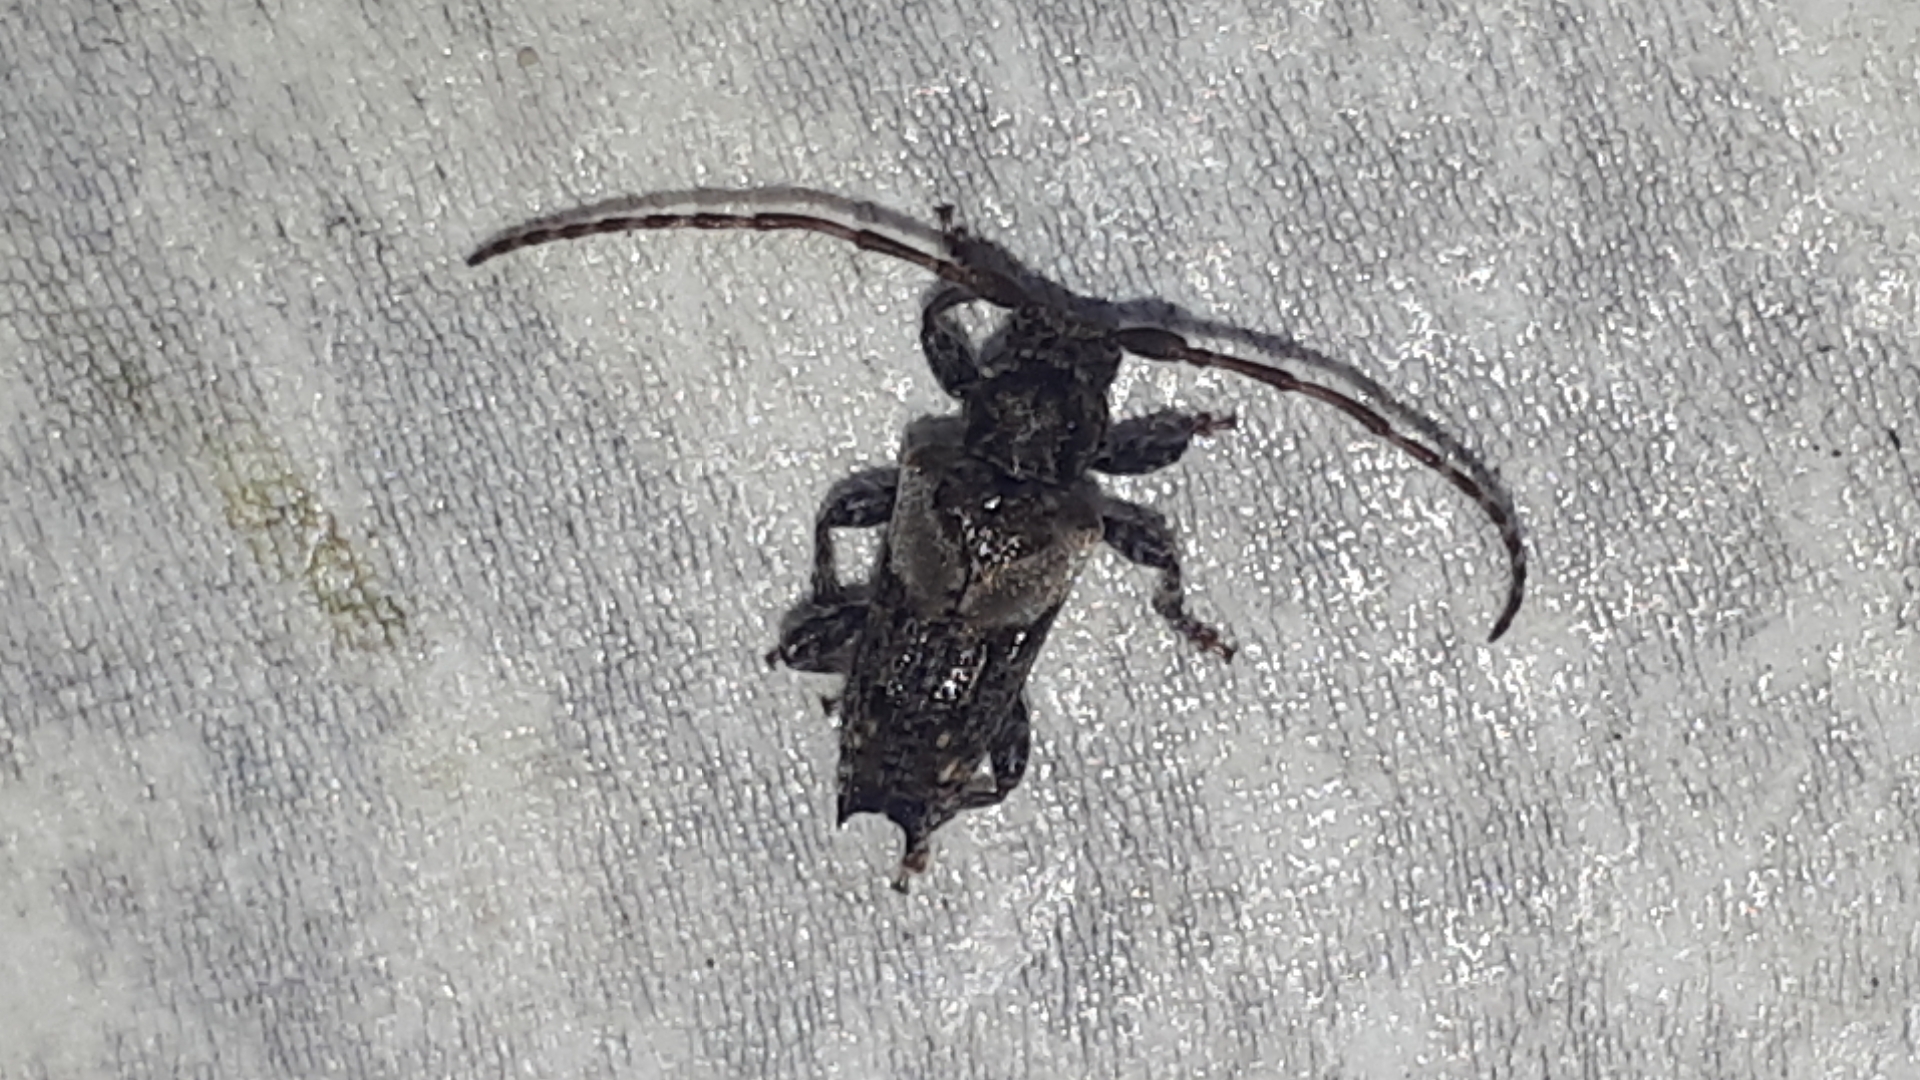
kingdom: Animalia
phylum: Arthropoda
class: Insecta
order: Coleoptera
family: Cerambycidae
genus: Pogonocherus
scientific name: Pogonocherus hispidus
